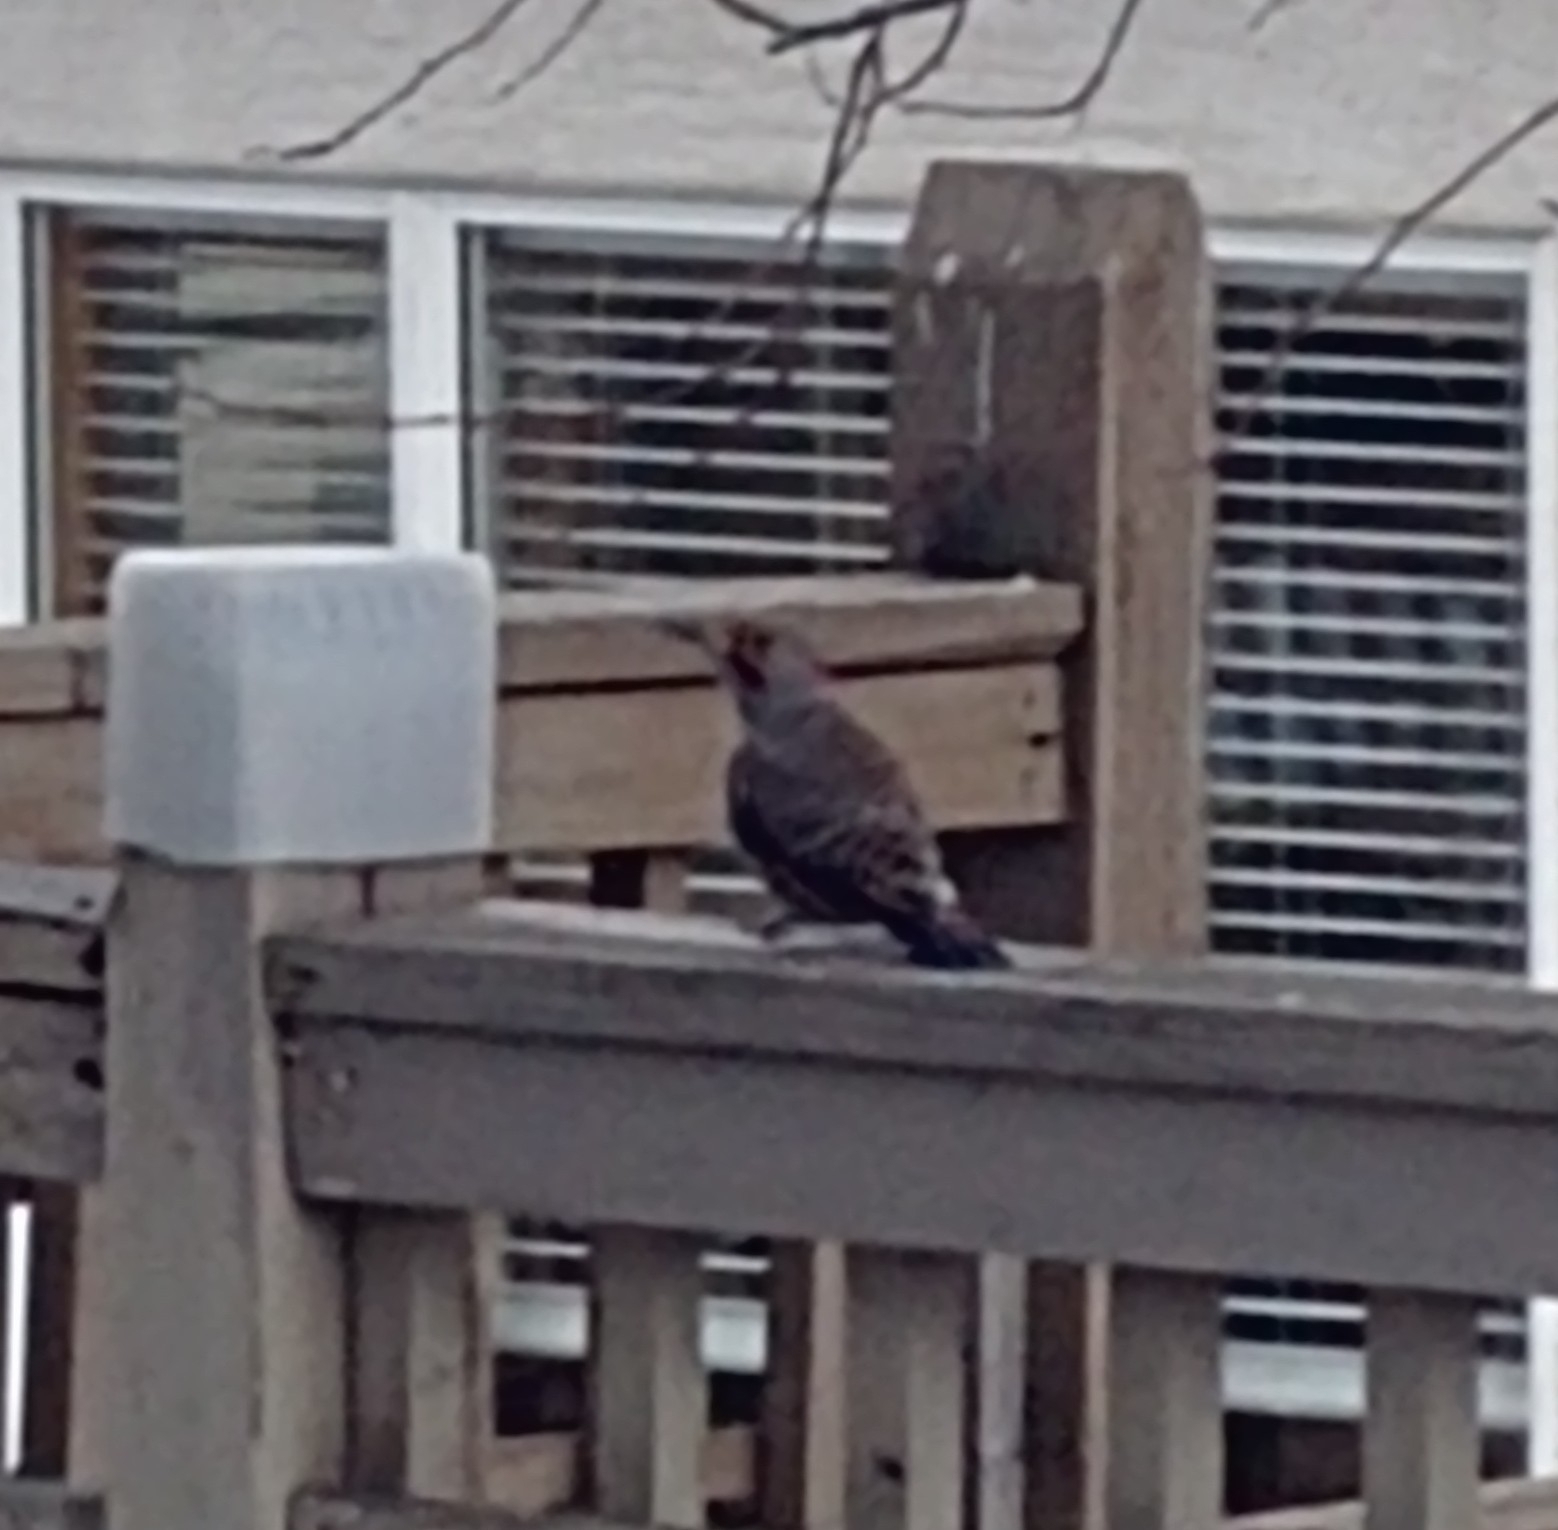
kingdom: Animalia
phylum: Chordata
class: Aves
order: Piciformes
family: Picidae
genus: Colaptes
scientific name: Colaptes
